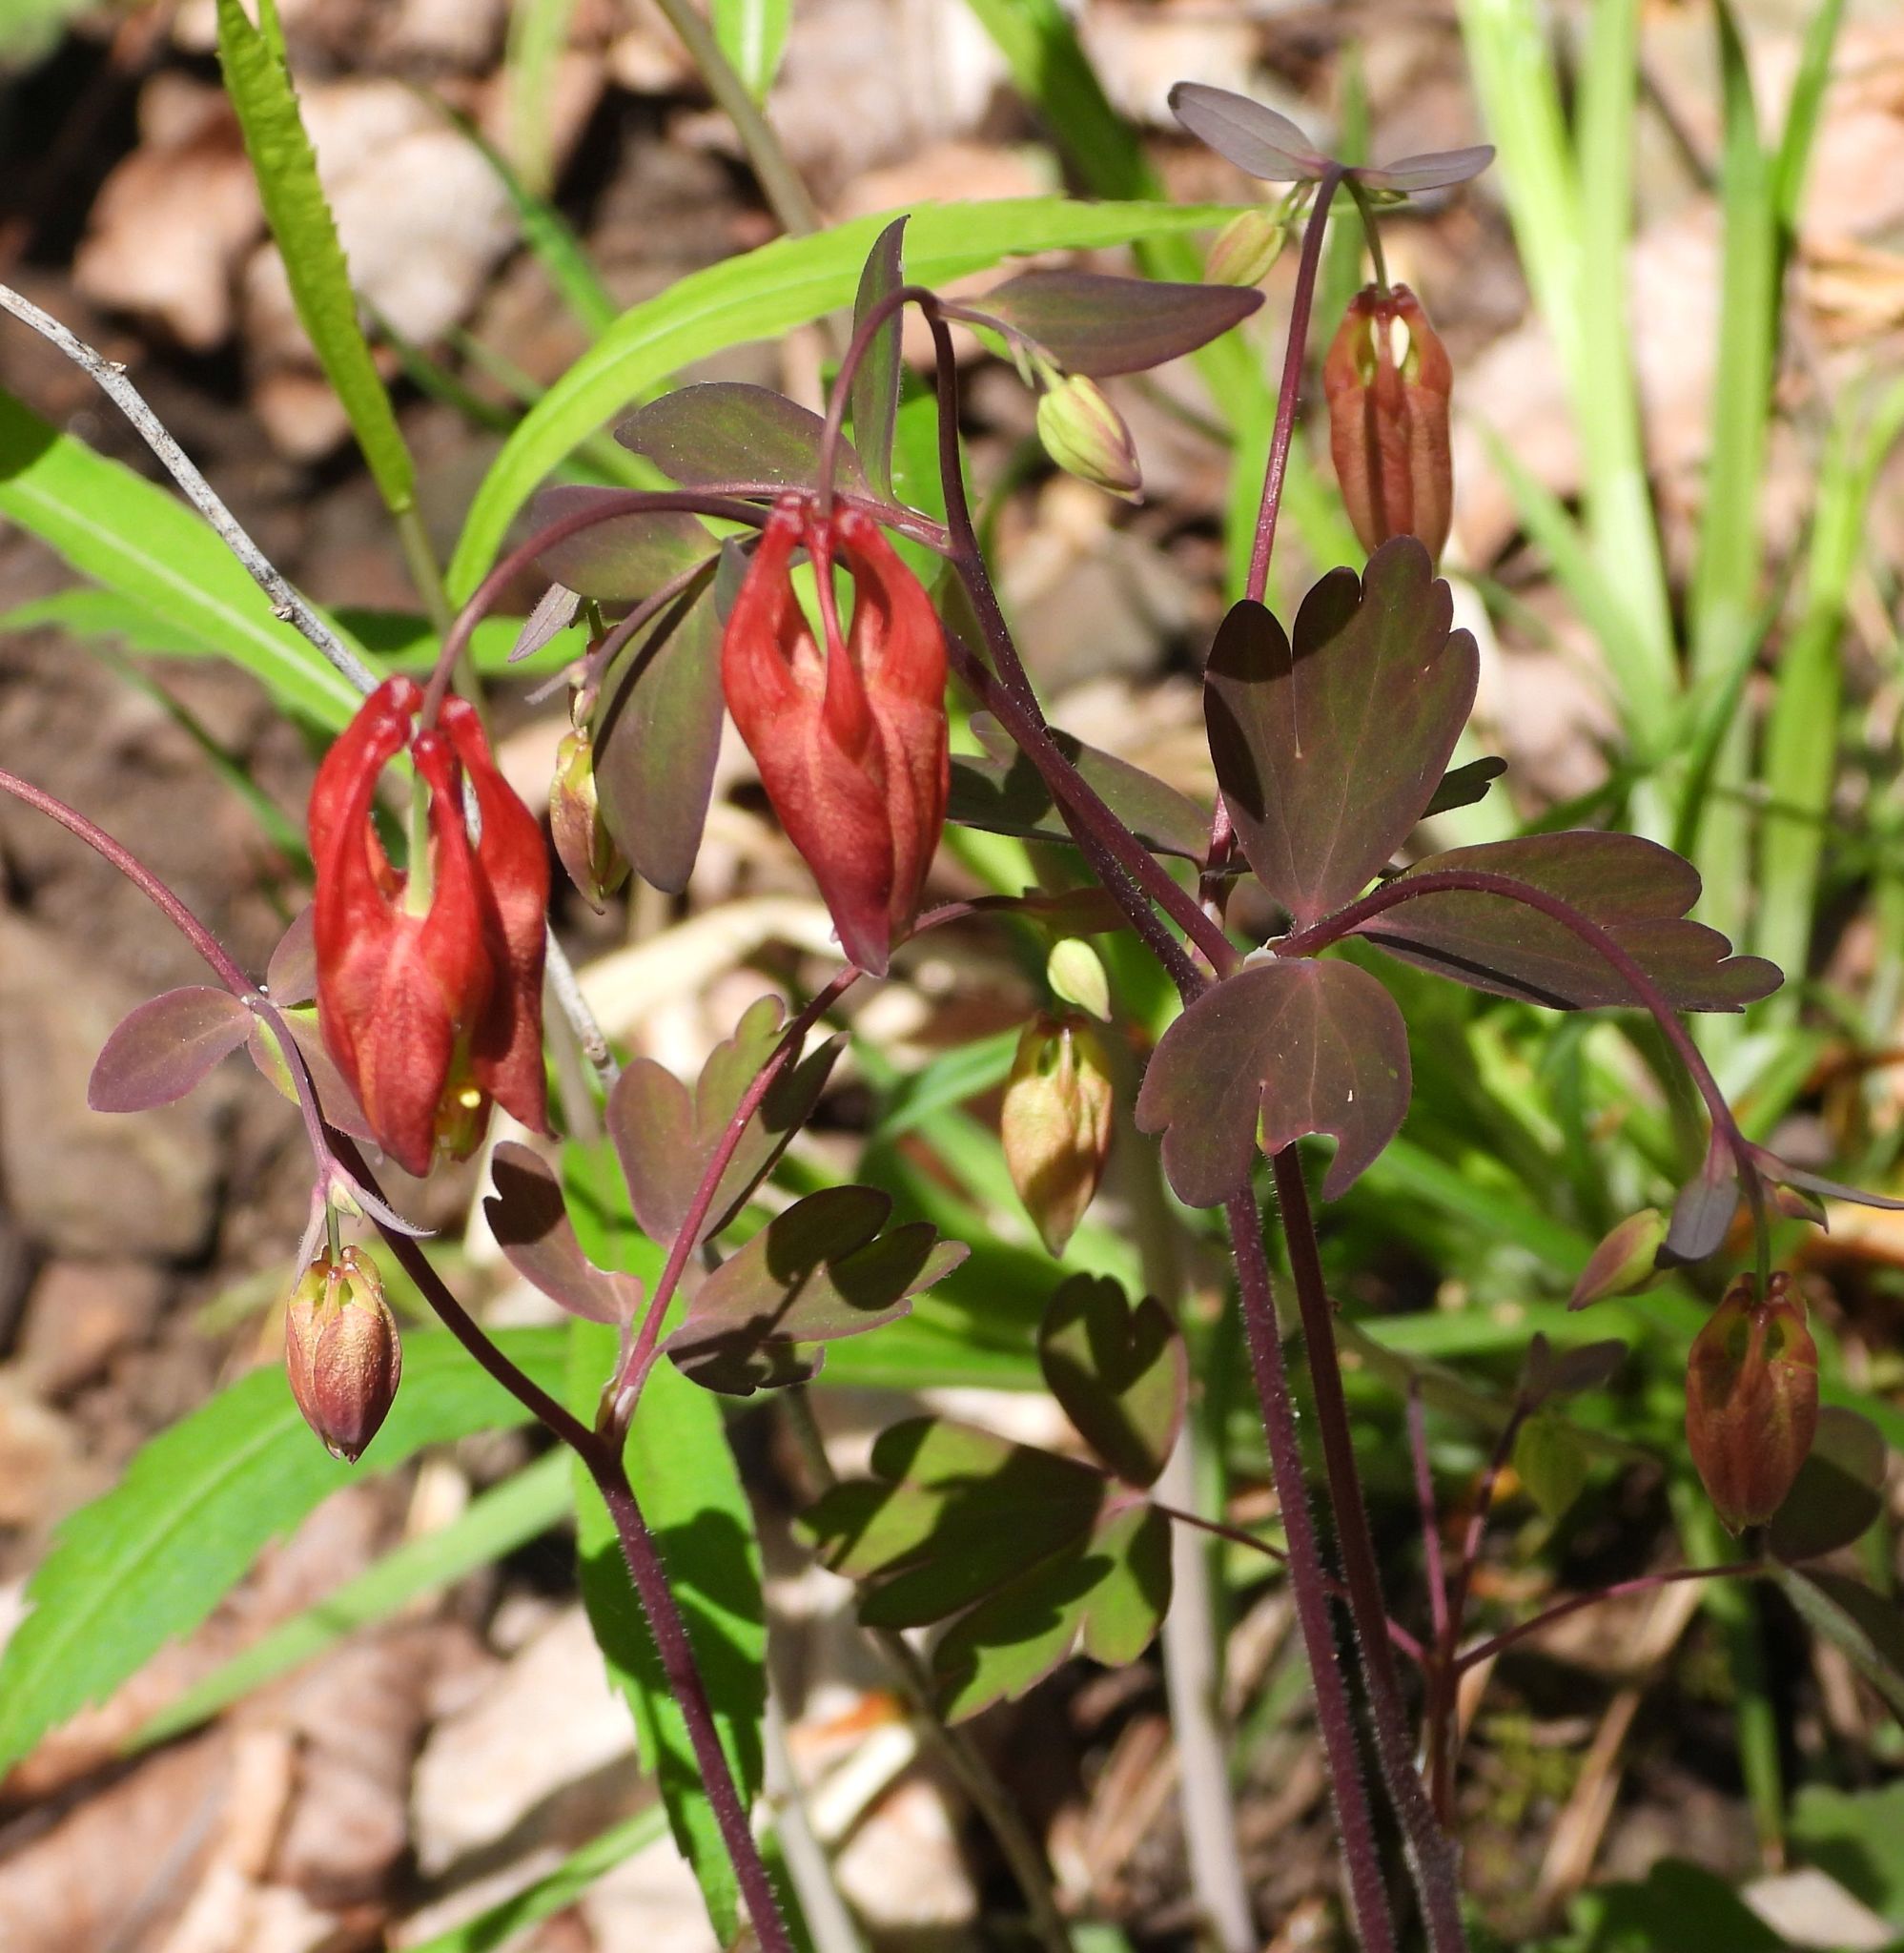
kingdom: Plantae
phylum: Tracheophyta
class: Magnoliopsida
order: Ranunculales
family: Ranunculaceae
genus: Aquilegia
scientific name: Aquilegia canadensis
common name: American columbine
